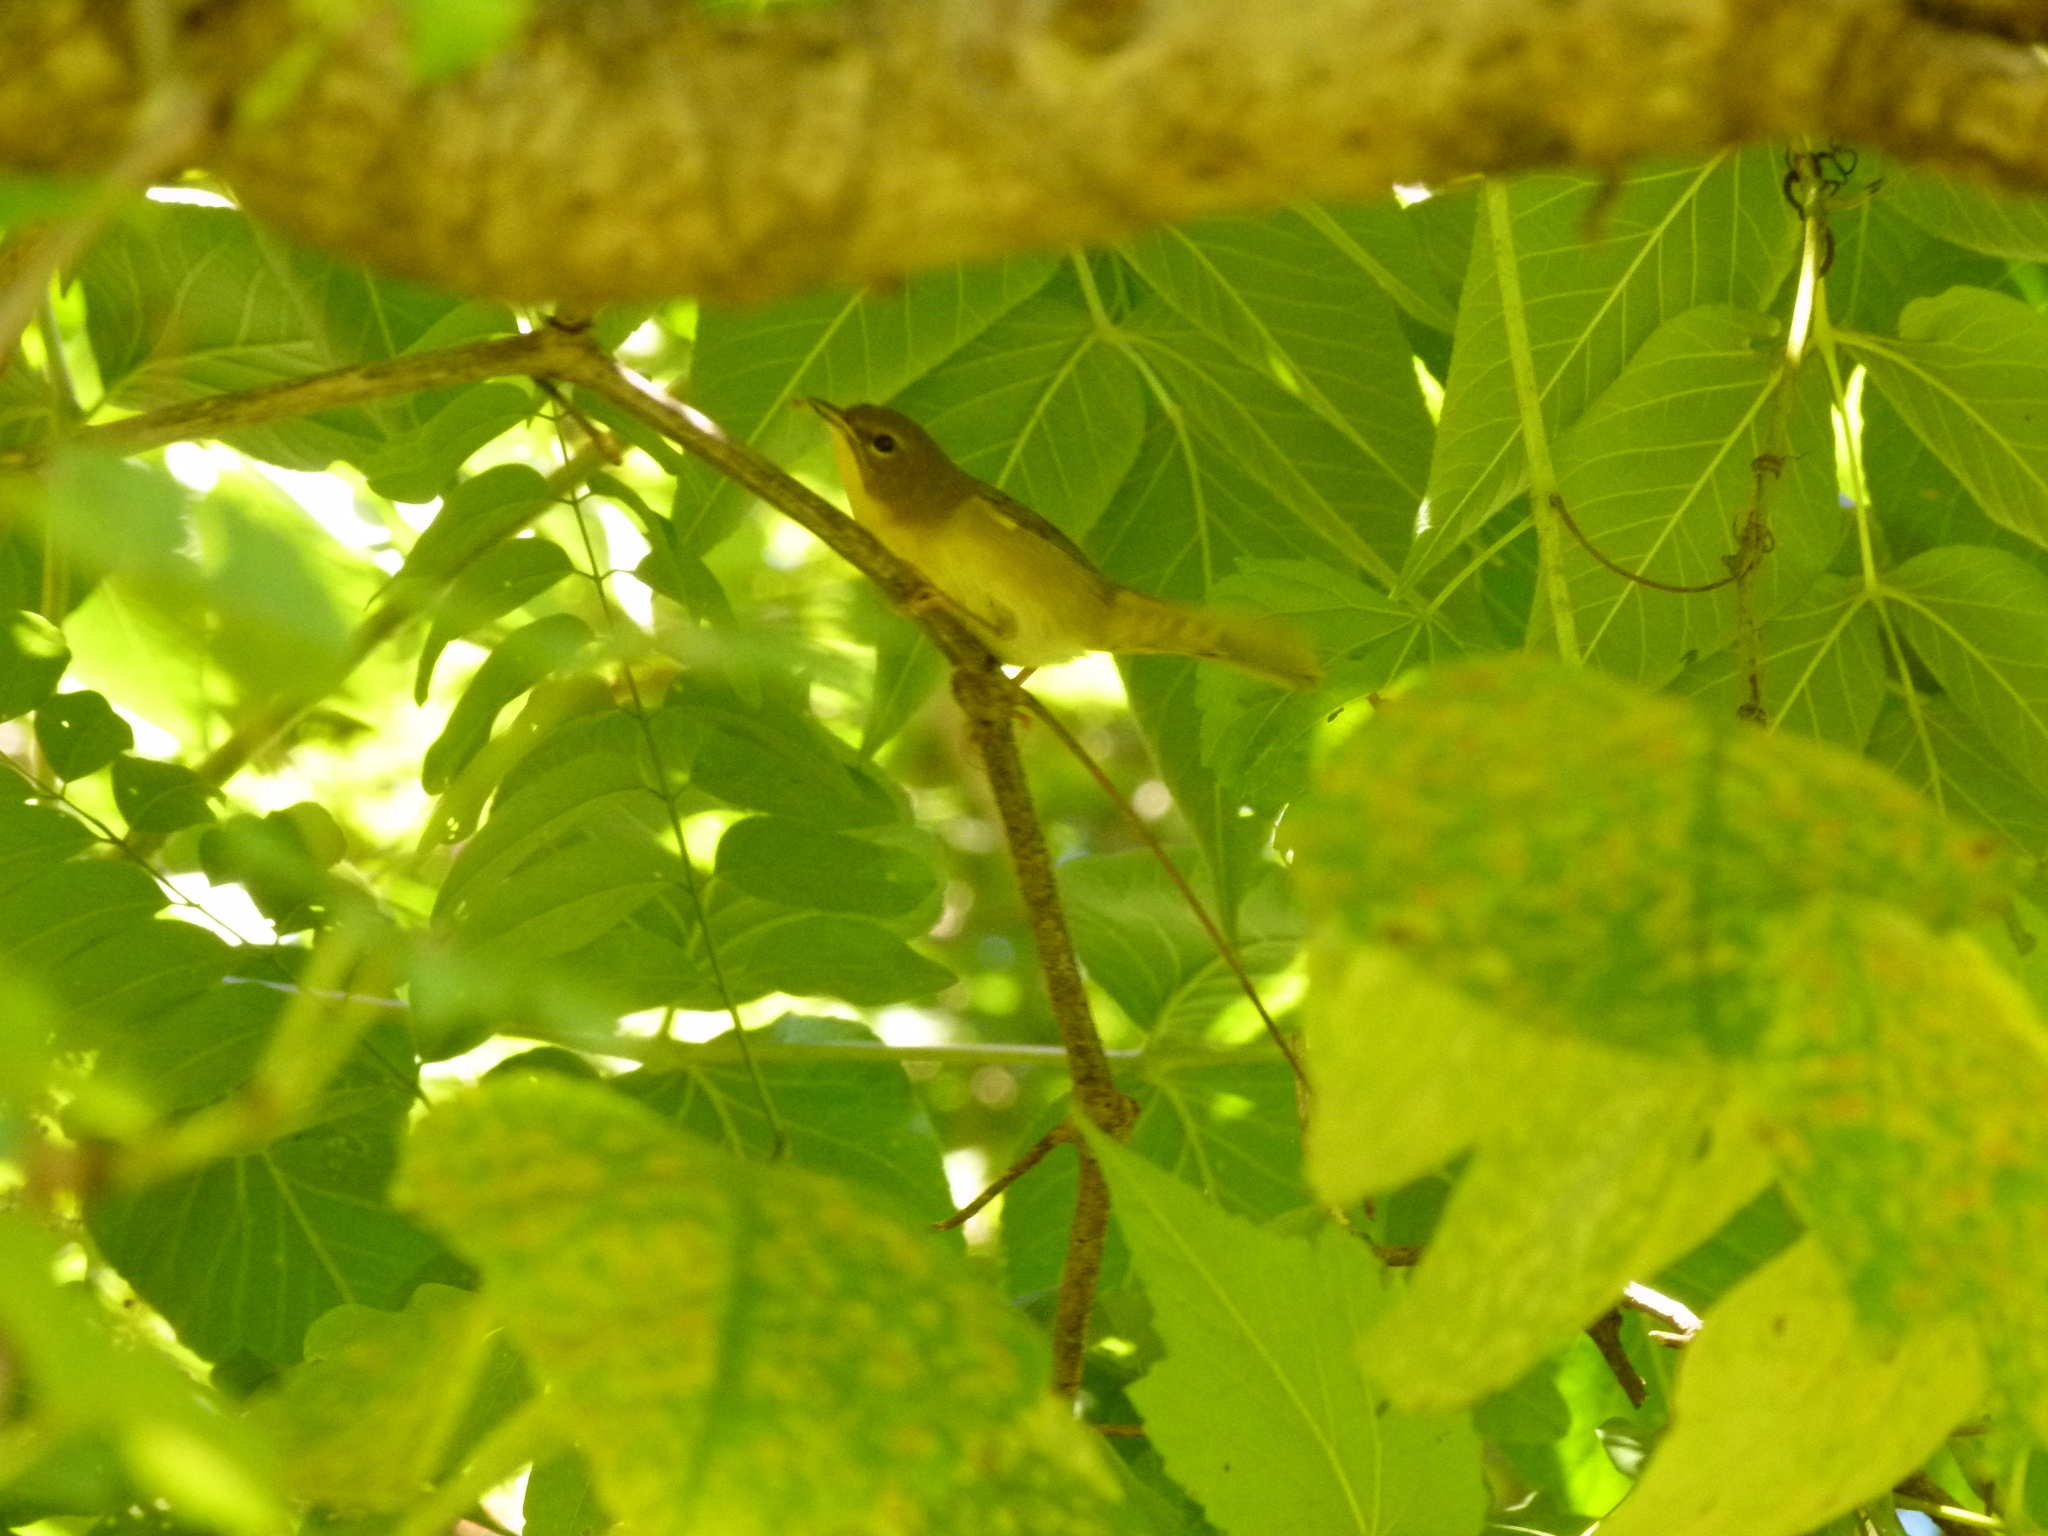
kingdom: Animalia
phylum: Chordata
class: Aves
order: Passeriformes
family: Parulidae
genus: Geothlypis
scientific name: Geothlypis trichas
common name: Common yellowthroat
